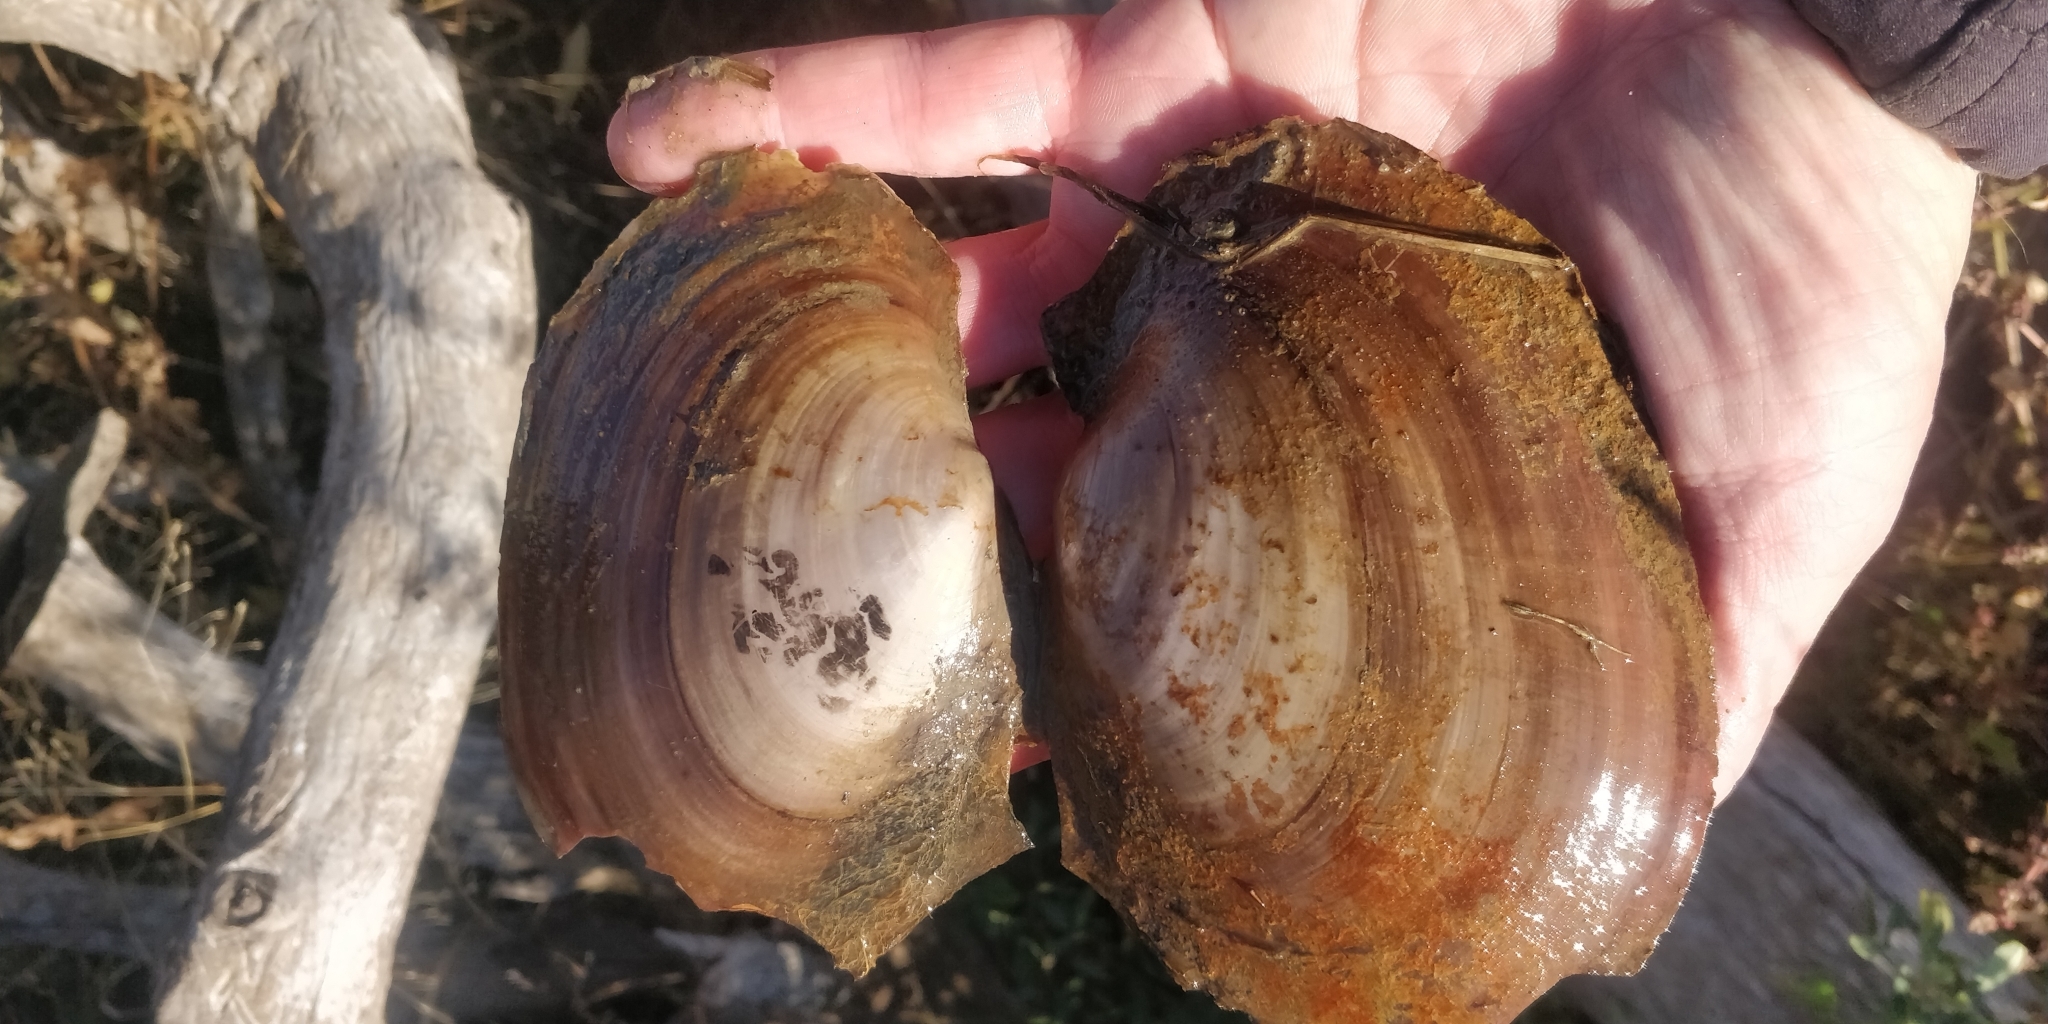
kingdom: Animalia
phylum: Mollusca
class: Bivalvia
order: Unionida
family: Unionidae
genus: Potamilus
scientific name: Potamilus ohiensis
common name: Pink papershell
